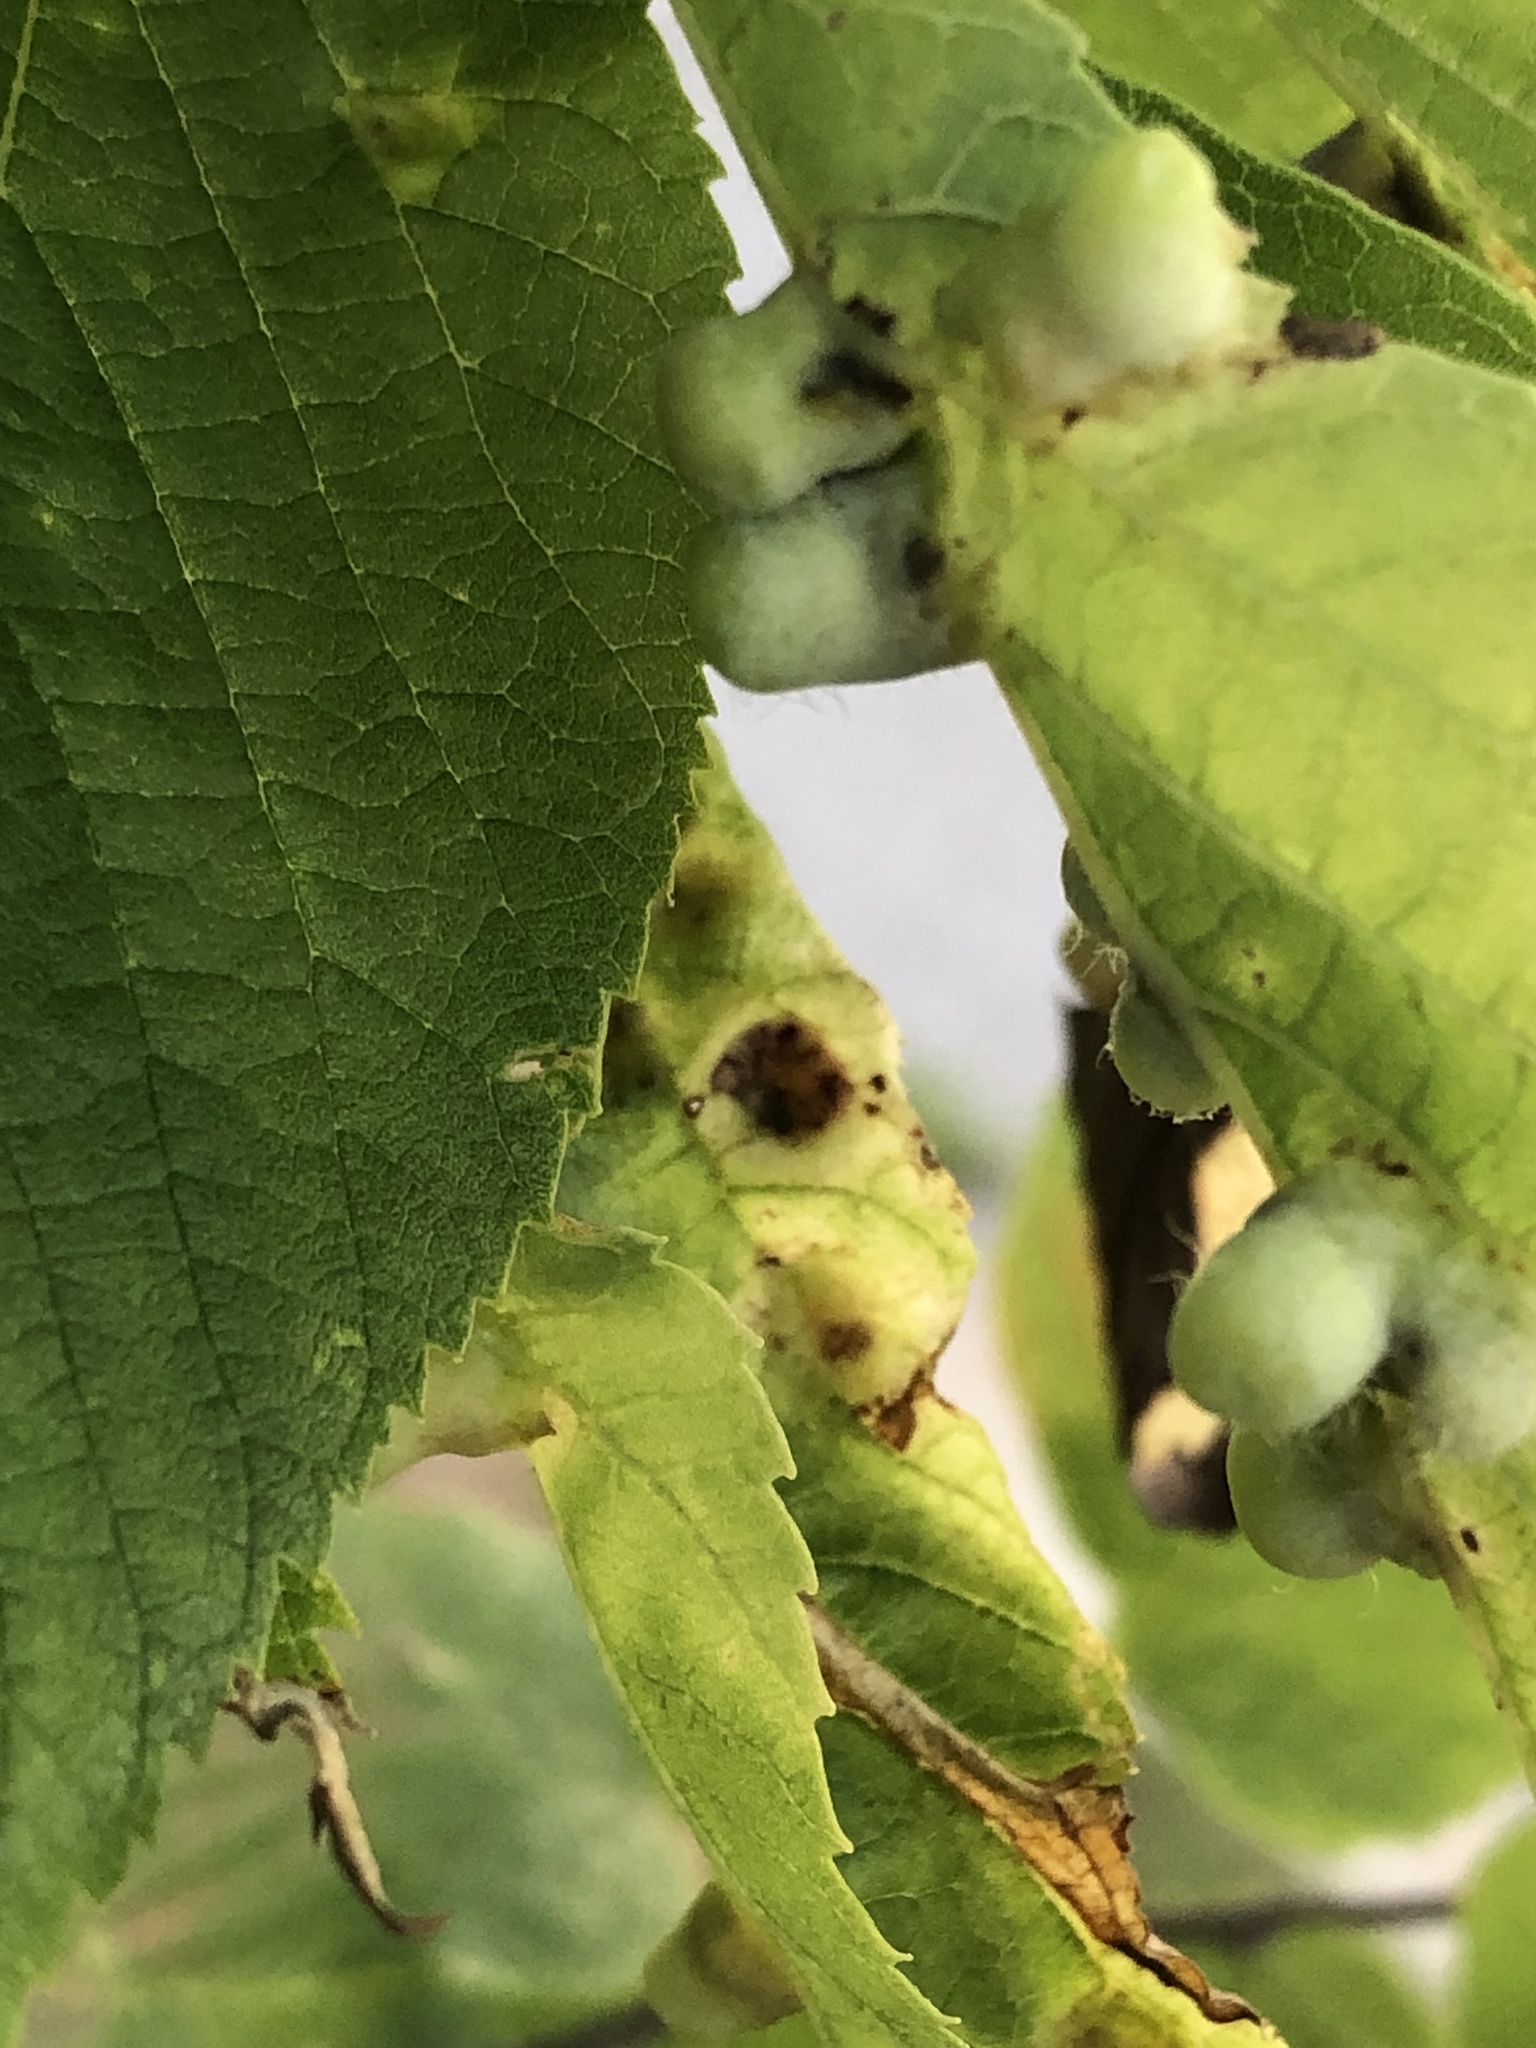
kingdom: Animalia
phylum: Arthropoda
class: Insecta
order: Hemiptera
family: Aphalaridae
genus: Pachypsylla
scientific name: Pachypsylla celtidismamma
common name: Hackberry nipplegall psyllid
